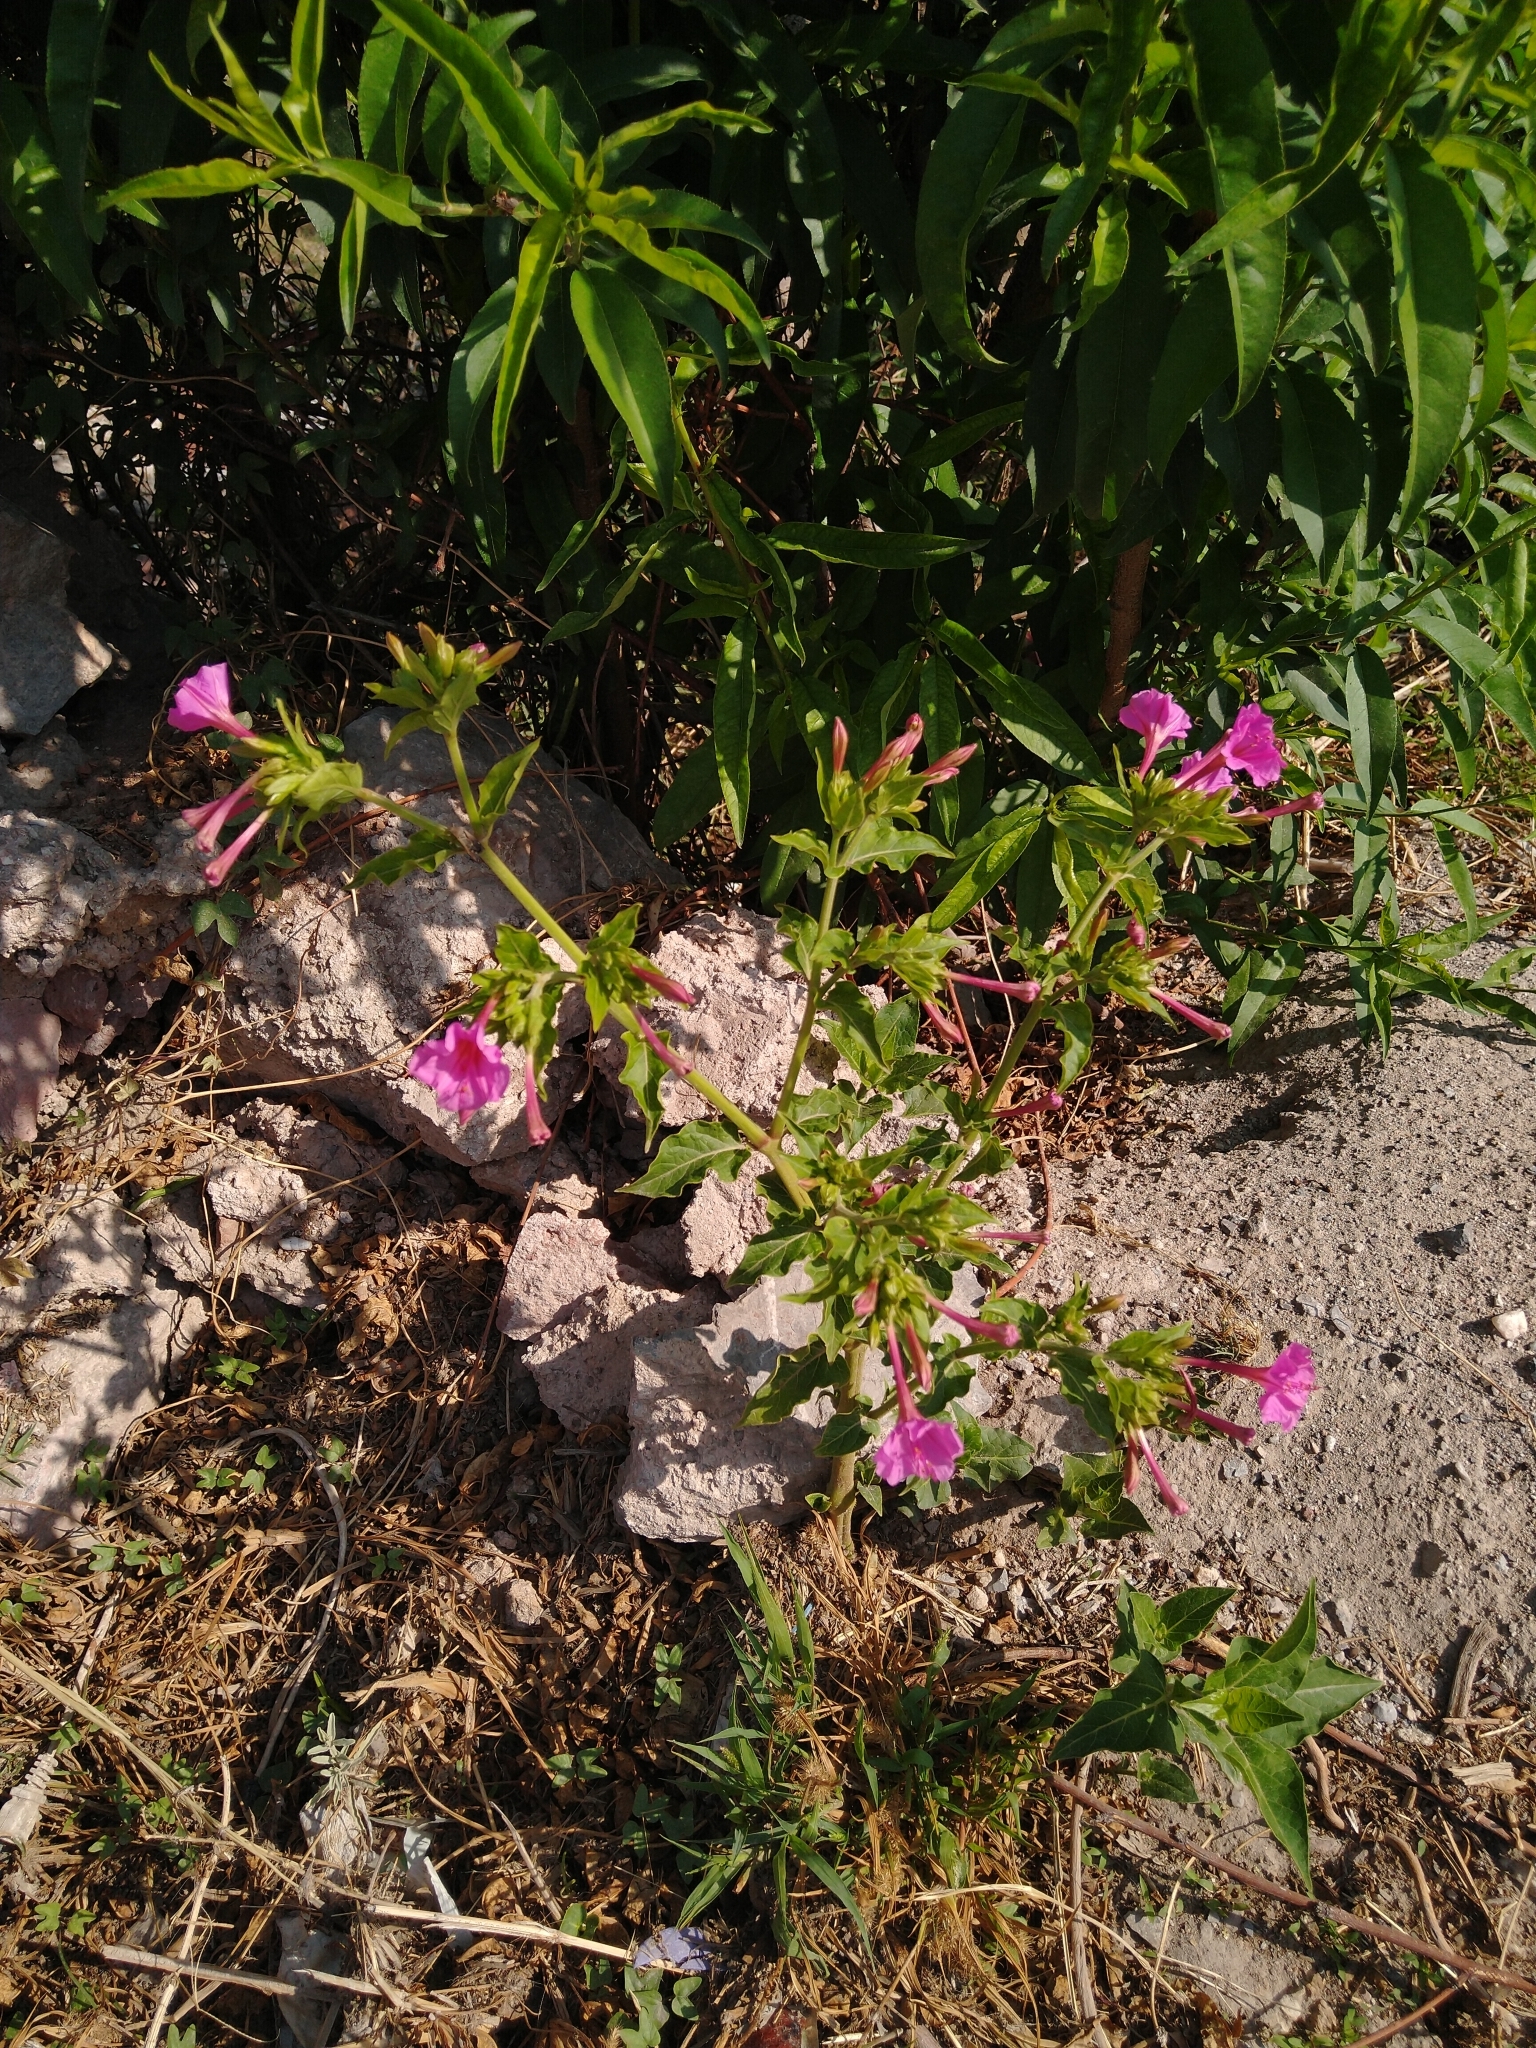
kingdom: Plantae
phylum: Tracheophyta
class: Magnoliopsida
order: Caryophyllales
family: Nyctaginaceae
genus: Mirabilis
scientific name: Mirabilis jalapa
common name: Marvel-of-peru
